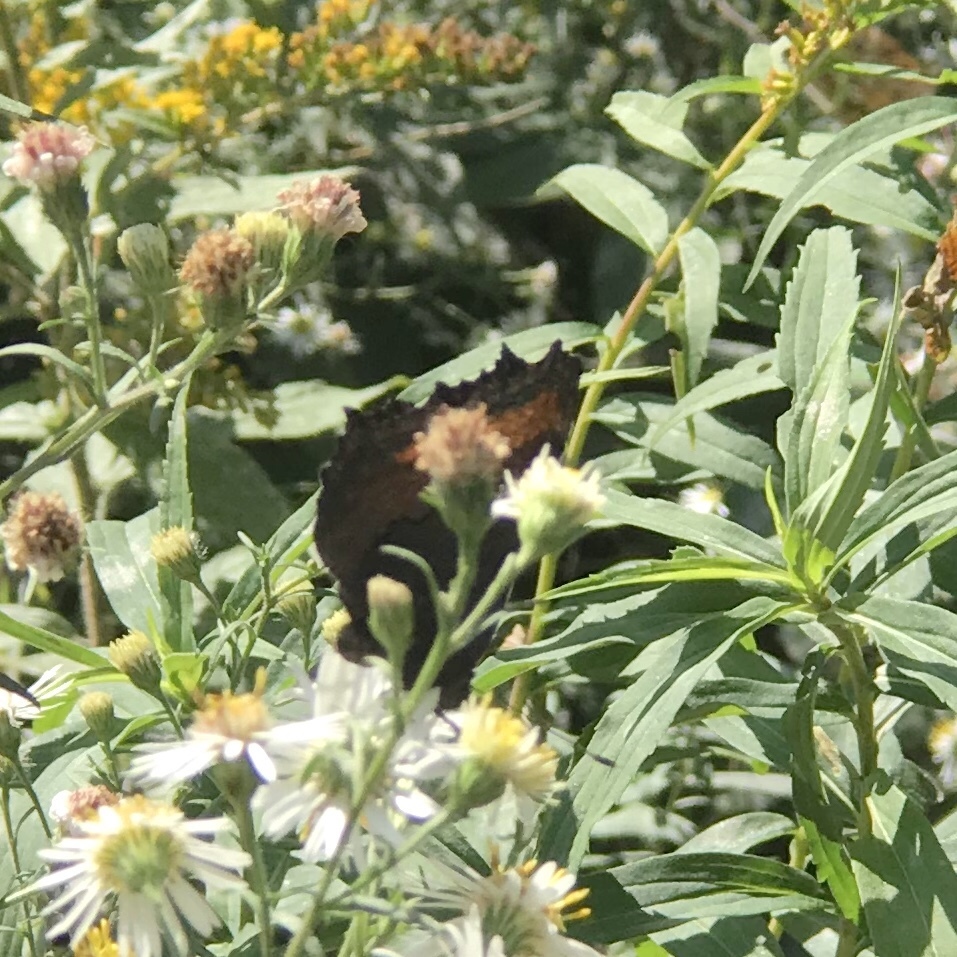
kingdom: Animalia
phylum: Arthropoda
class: Insecta
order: Lepidoptera
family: Nymphalidae
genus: Aglais
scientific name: Aglais milberti
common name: Milbert's tortoiseshell
